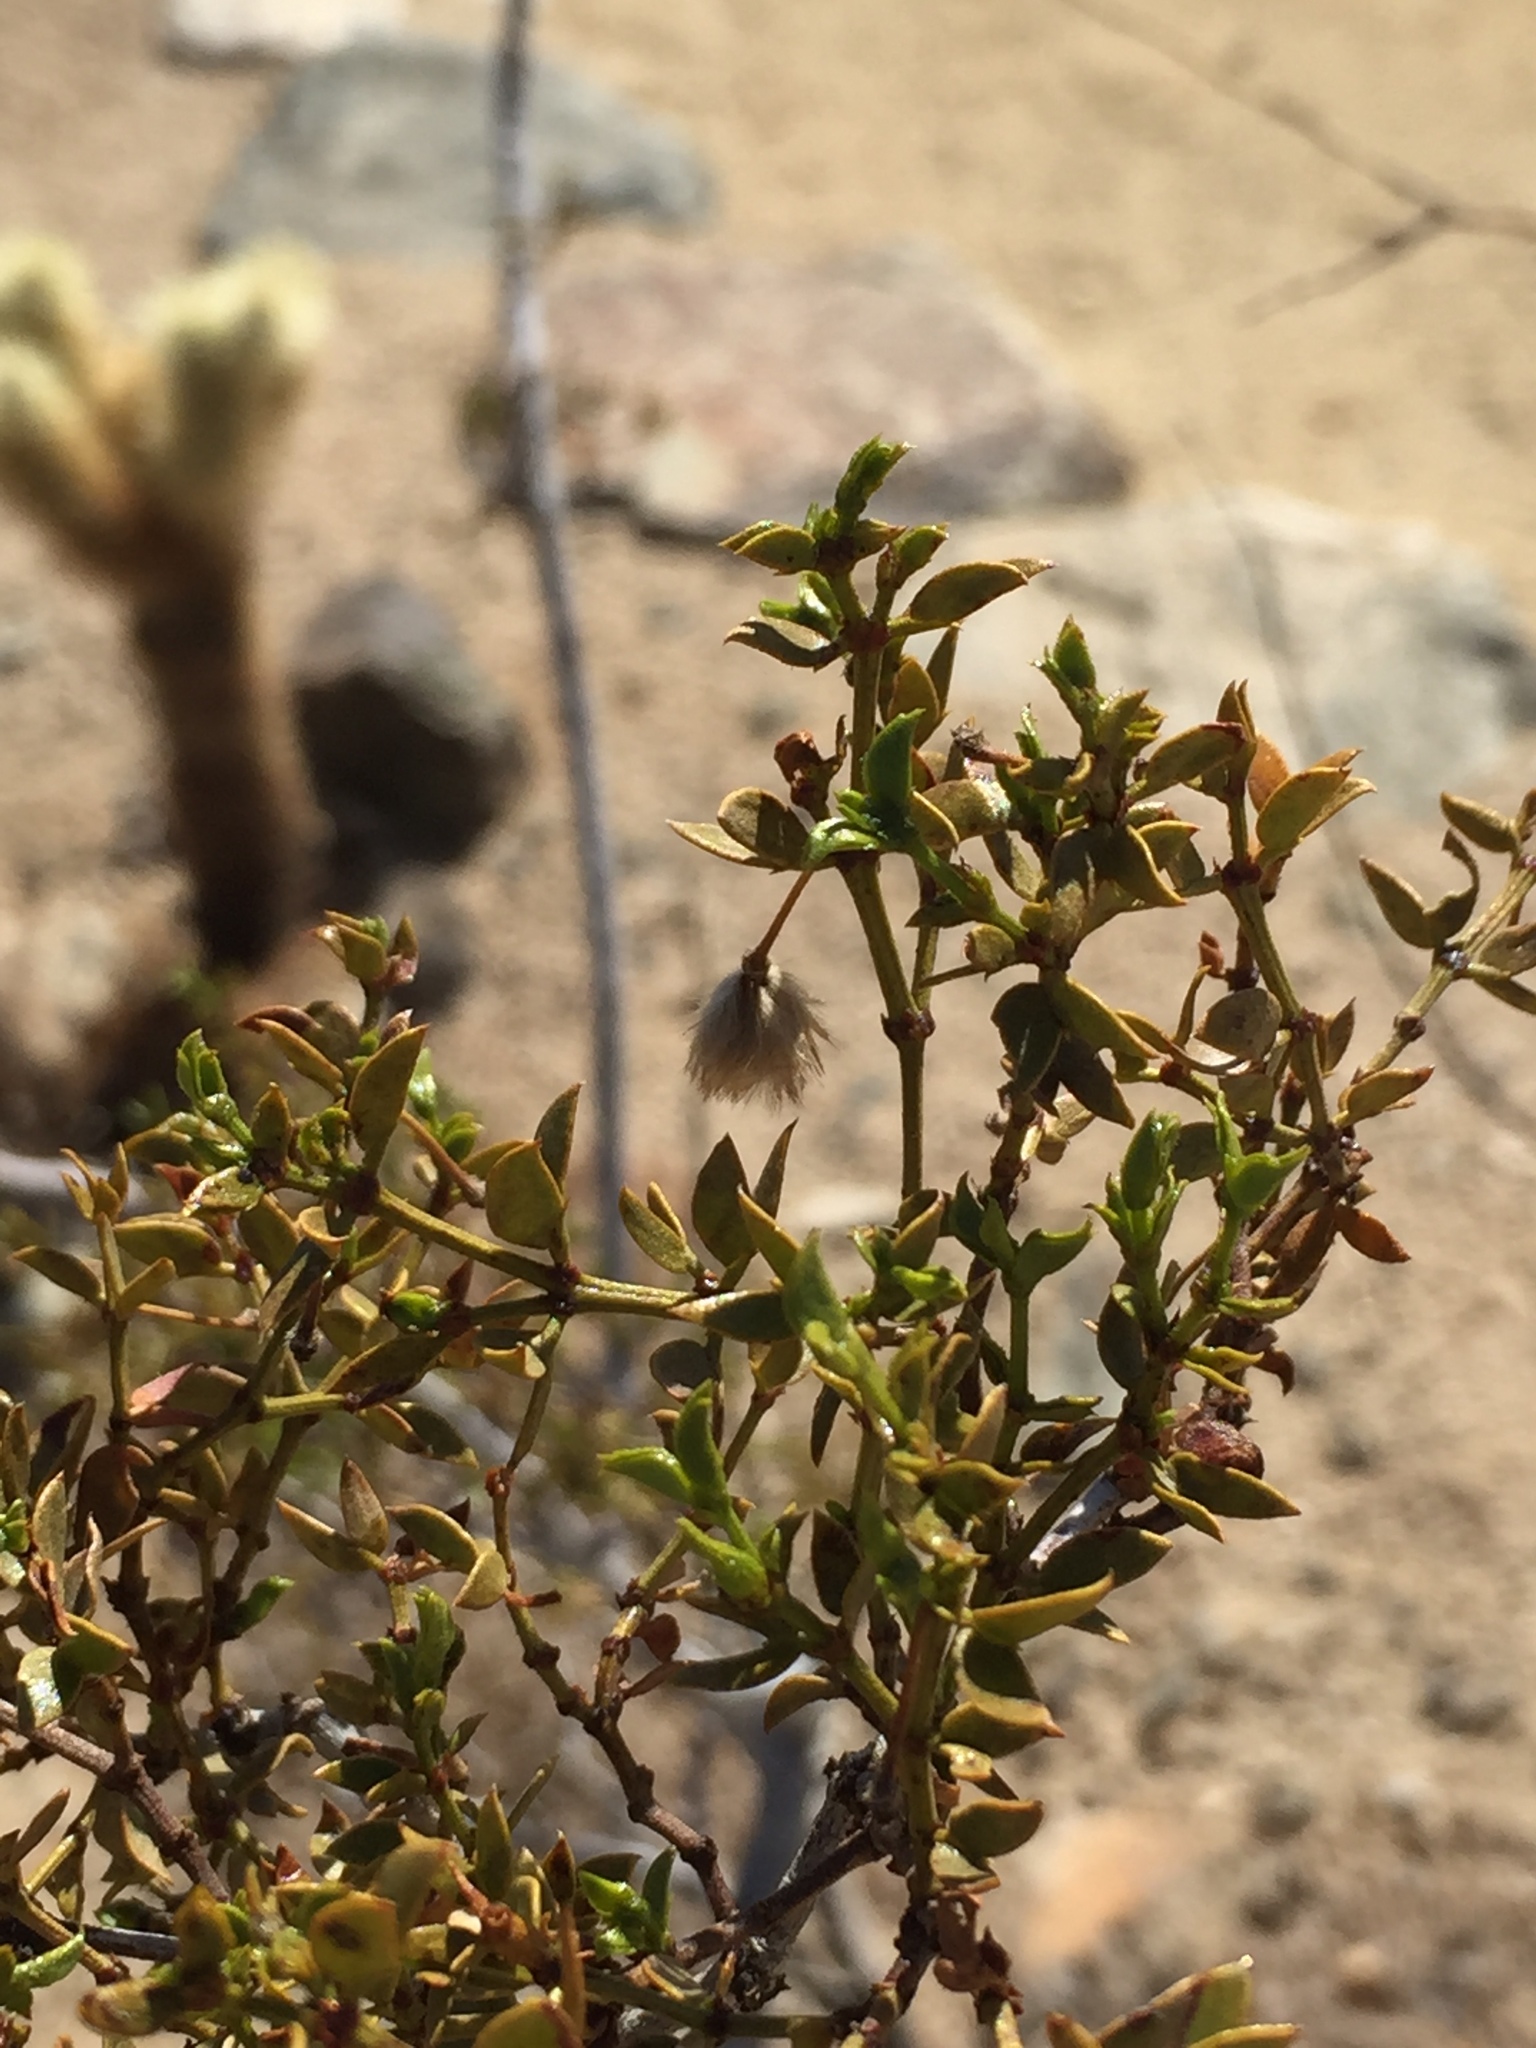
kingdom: Plantae
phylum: Tracheophyta
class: Magnoliopsida
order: Zygophyllales
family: Zygophyllaceae
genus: Larrea
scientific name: Larrea tridentata
